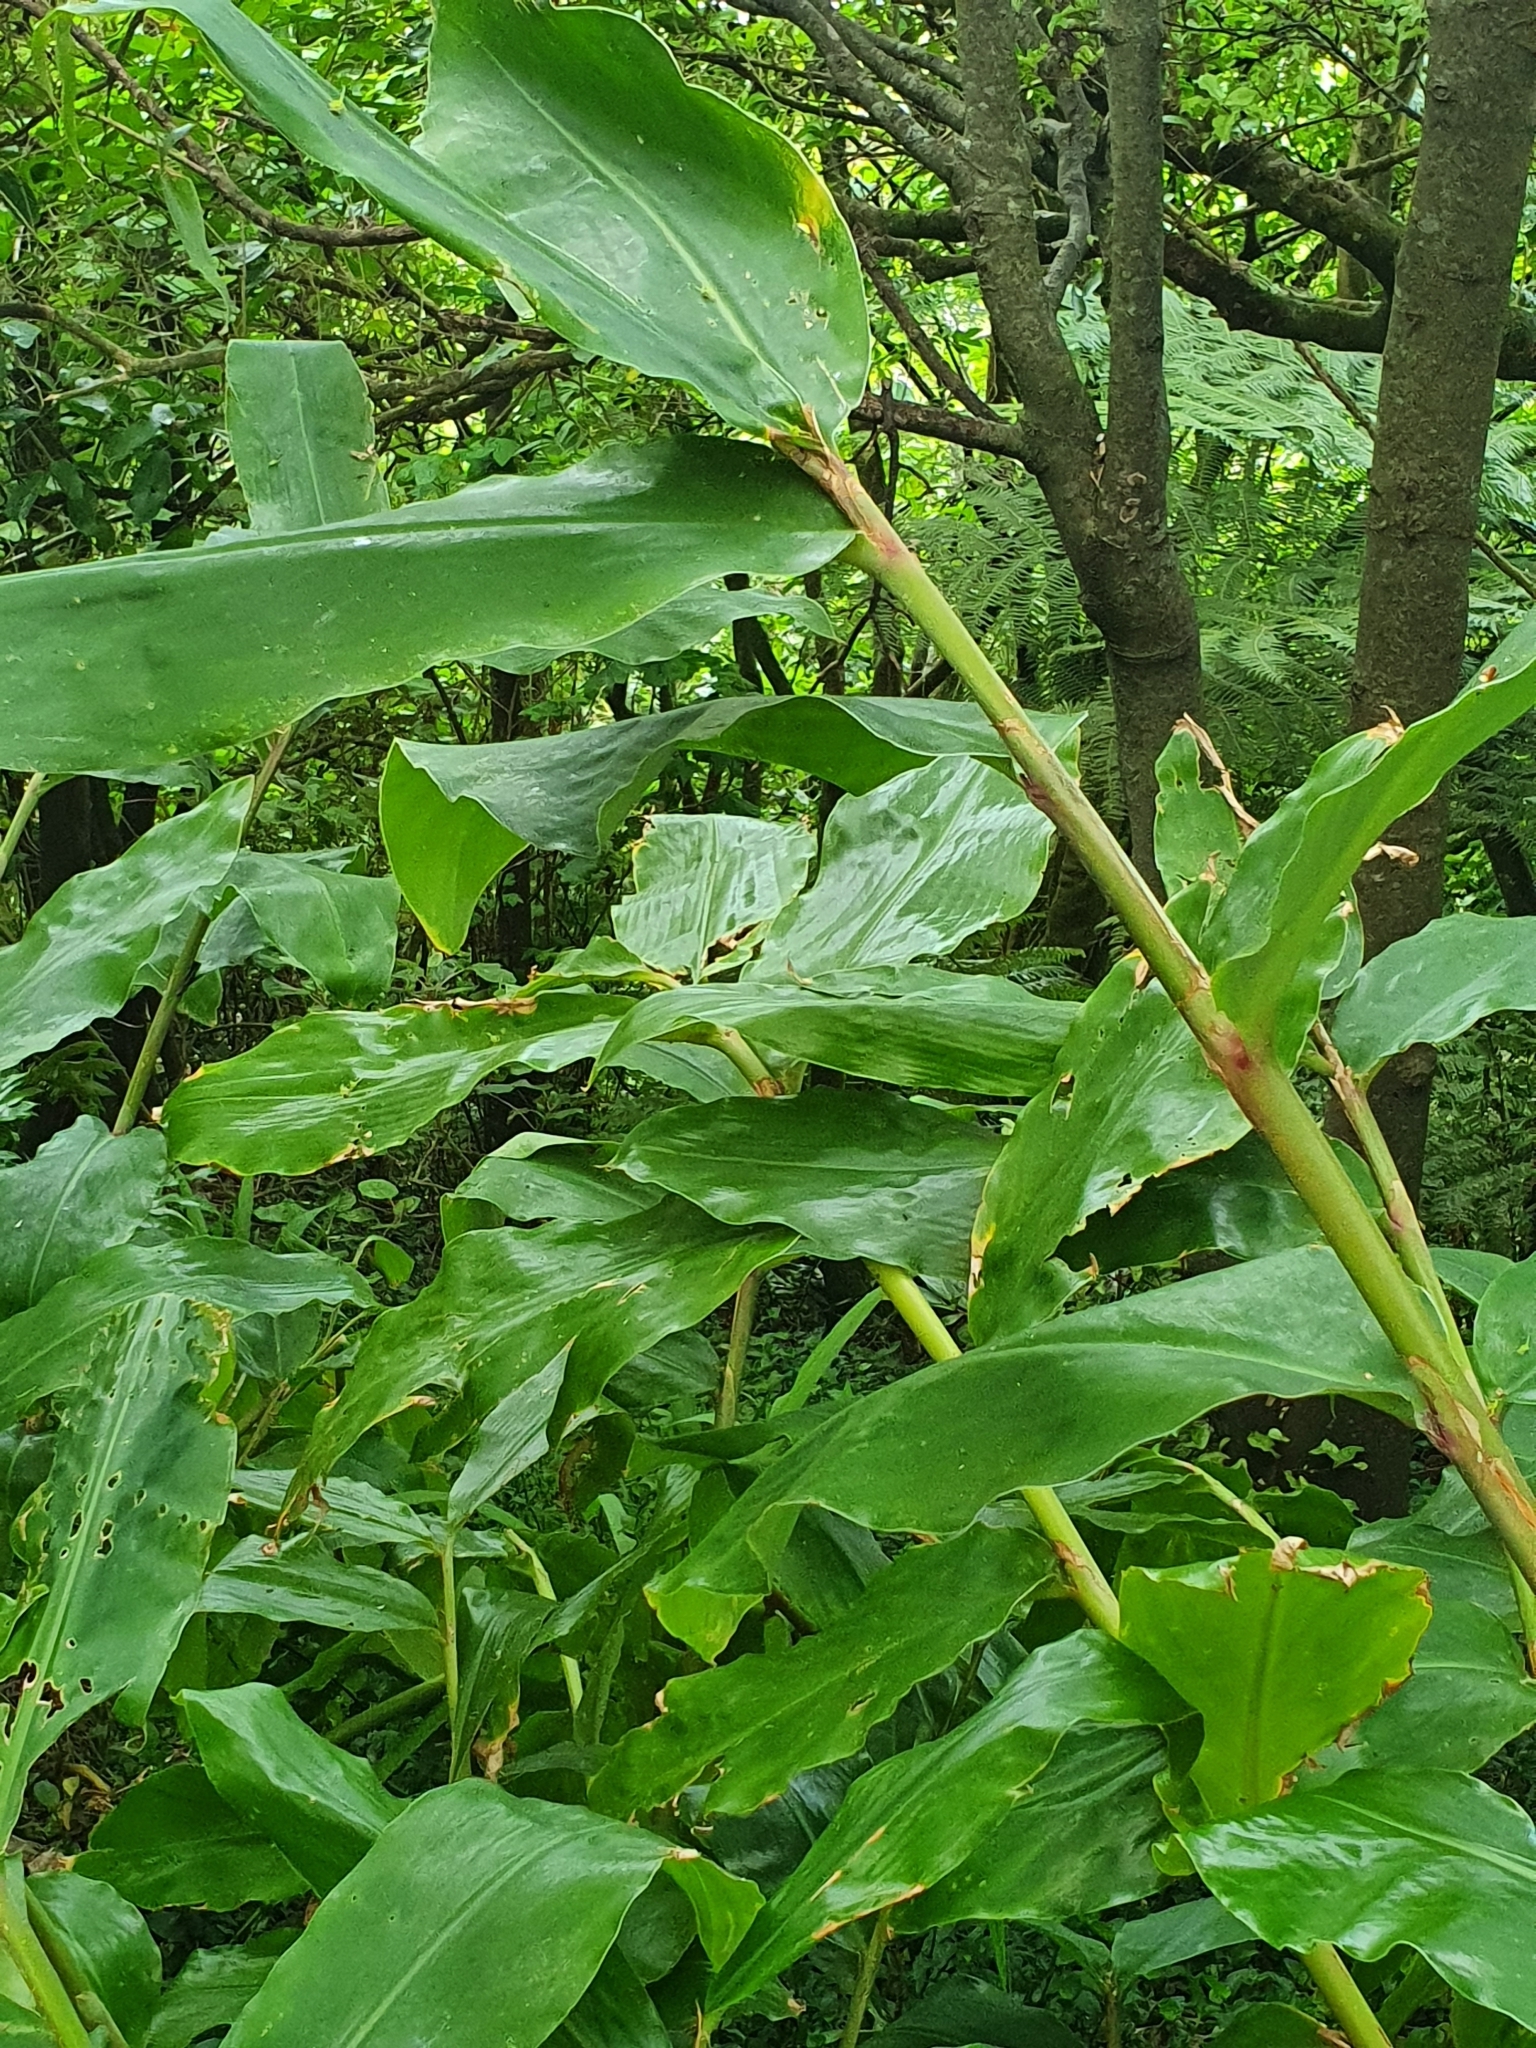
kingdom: Plantae
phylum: Tracheophyta
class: Liliopsida
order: Zingiberales
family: Zingiberaceae
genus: Hedychium
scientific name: Hedychium gardnerianum
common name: Himalayan ginger
